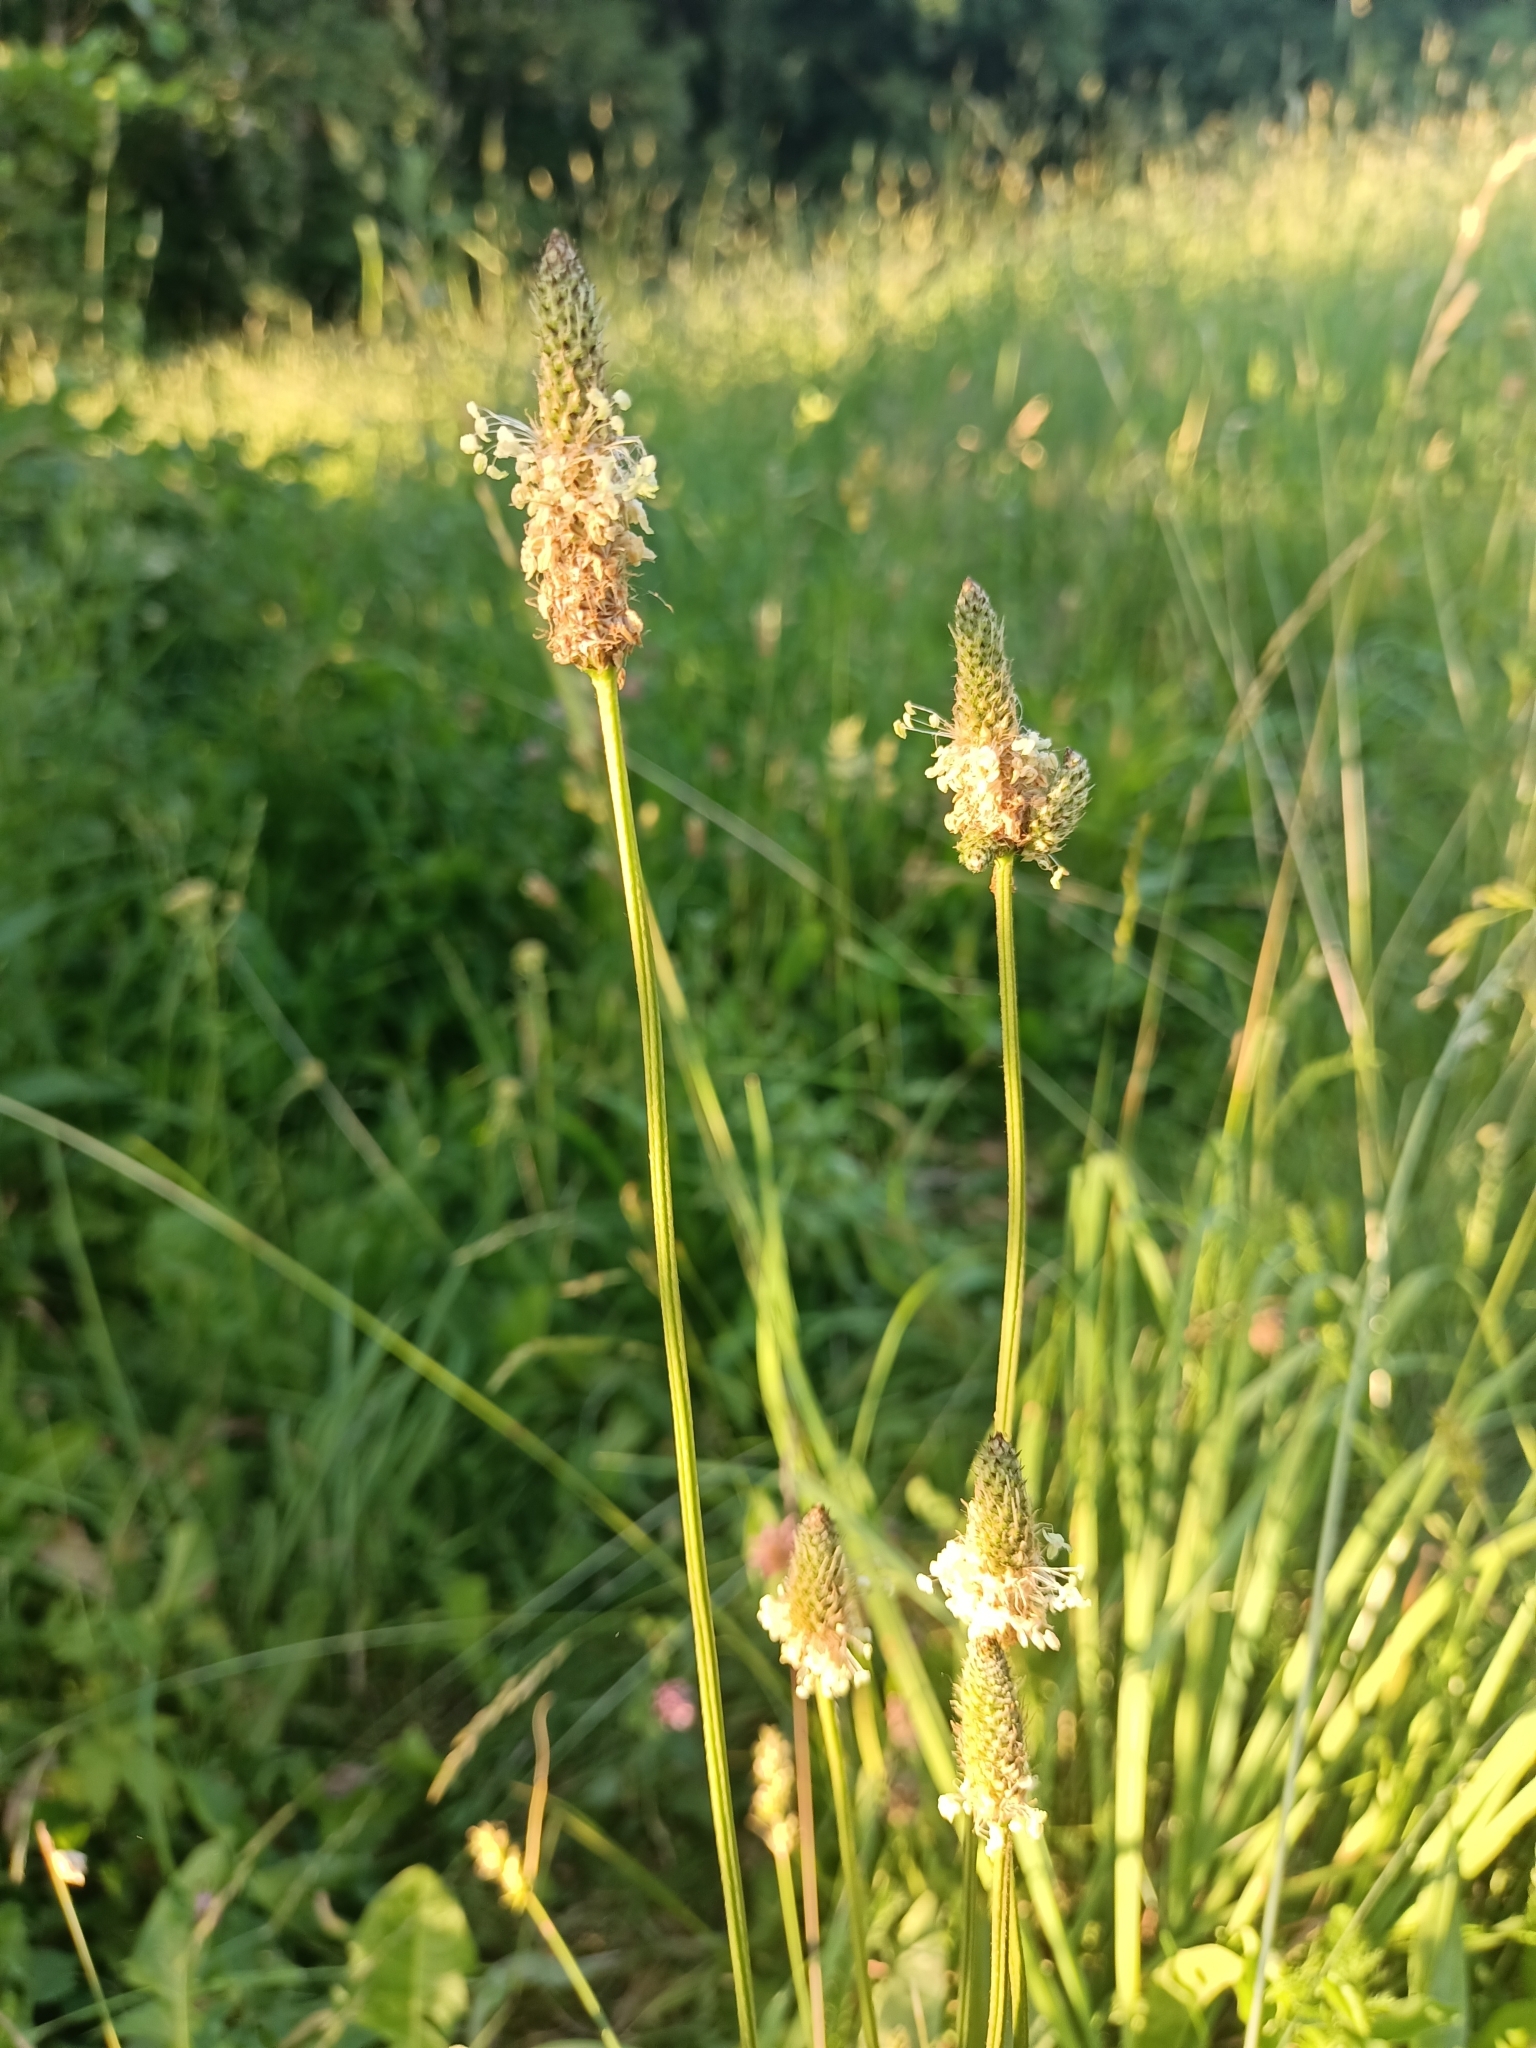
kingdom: Plantae
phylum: Tracheophyta
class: Magnoliopsida
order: Lamiales
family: Plantaginaceae
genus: Plantago
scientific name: Plantago lanceolata
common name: Ribwort plantain
